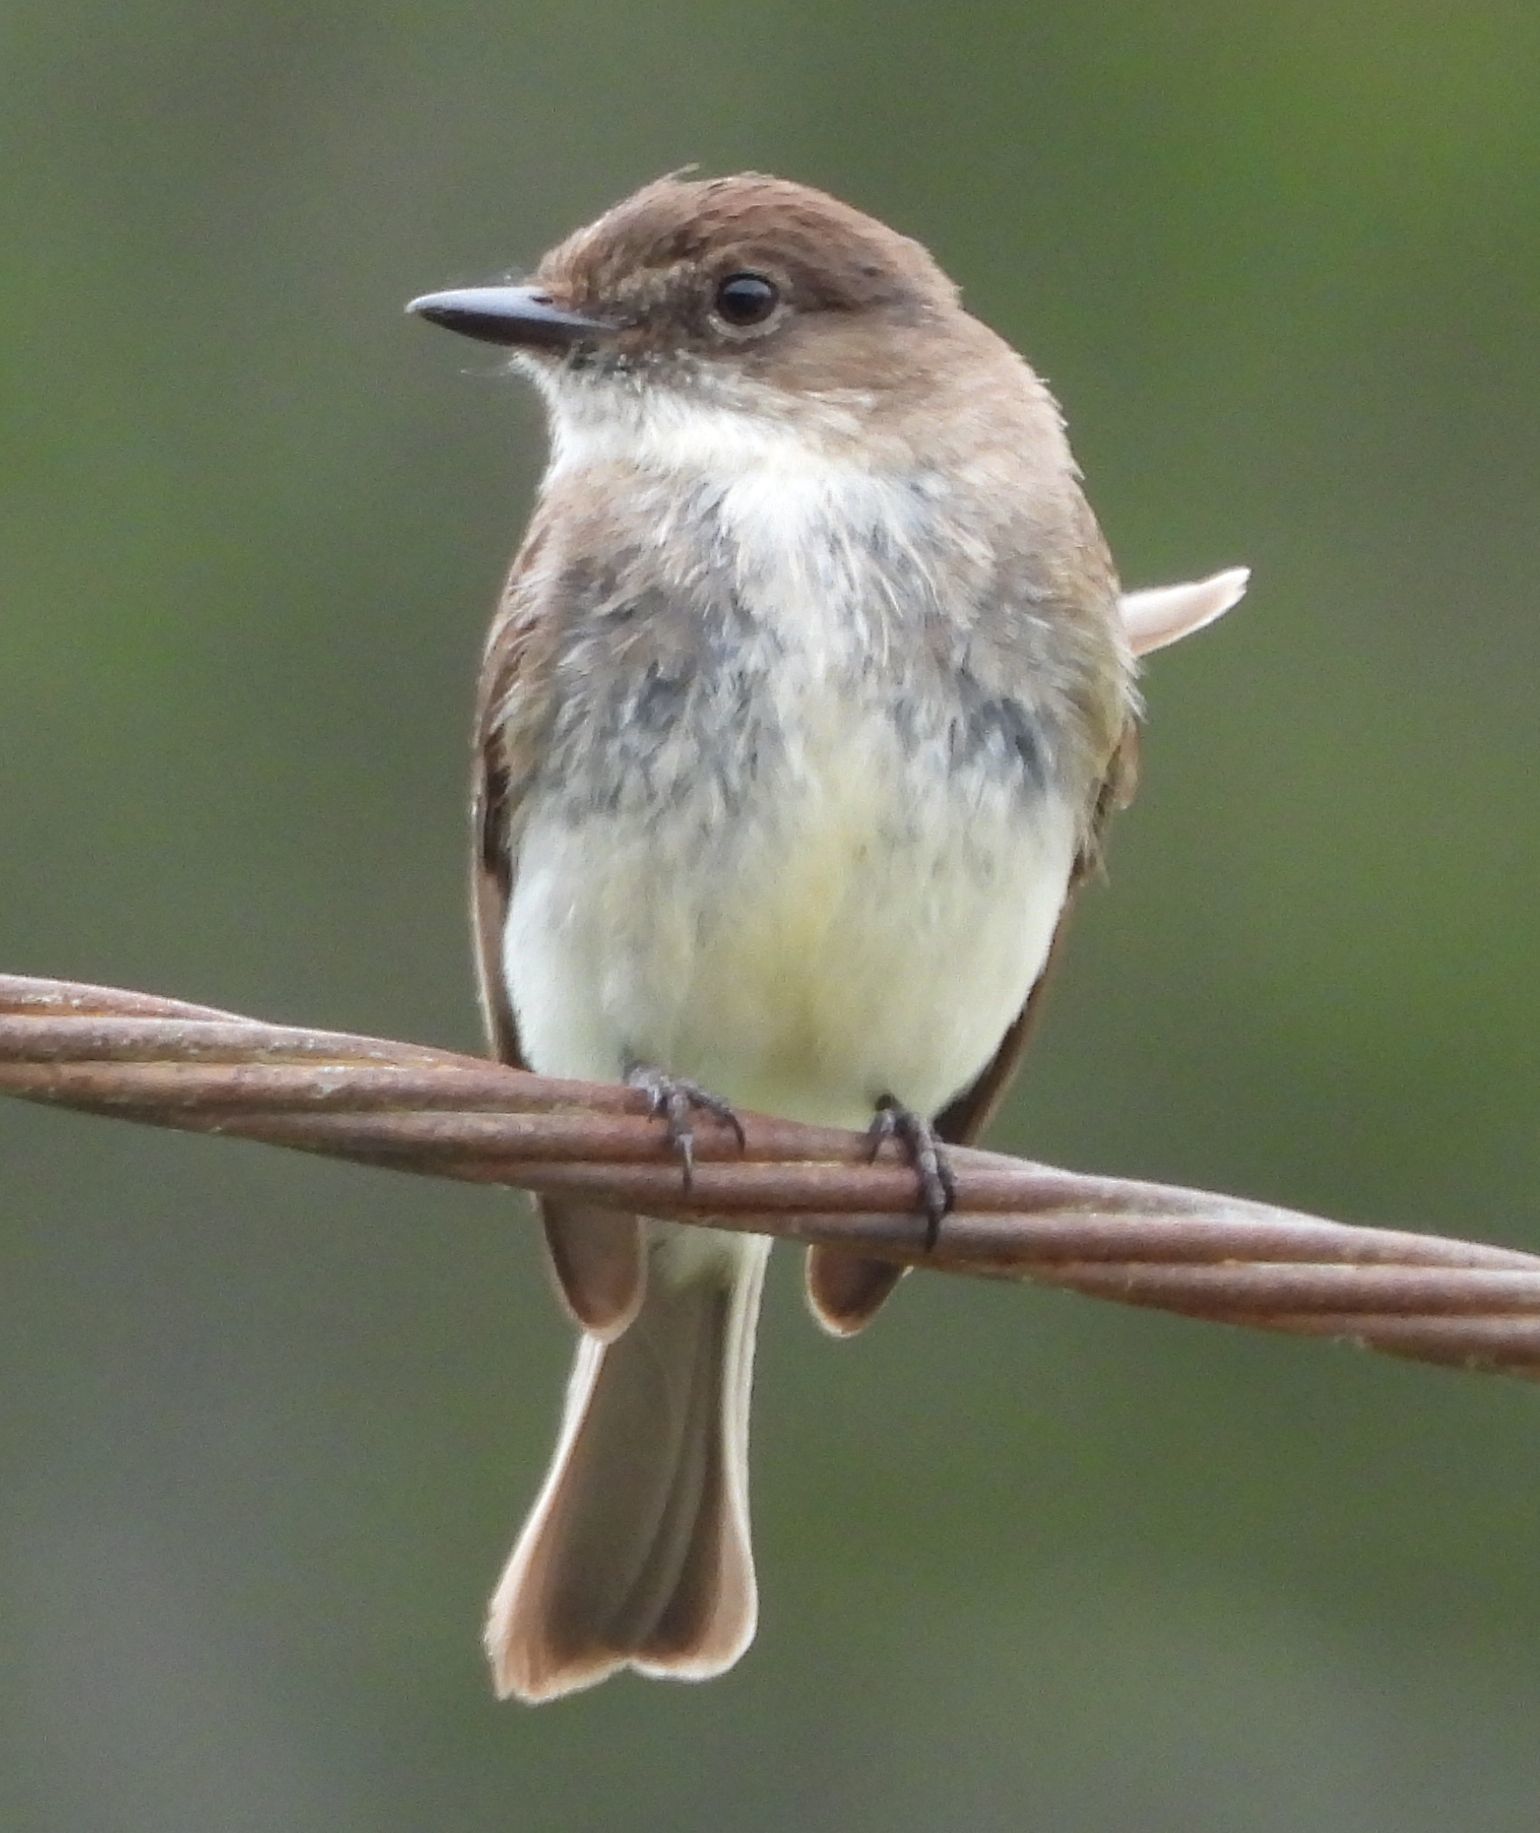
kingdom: Animalia
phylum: Chordata
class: Aves
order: Passeriformes
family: Tyrannidae
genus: Sayornis
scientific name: Sayornis phoebe
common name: Eastern phoebe
